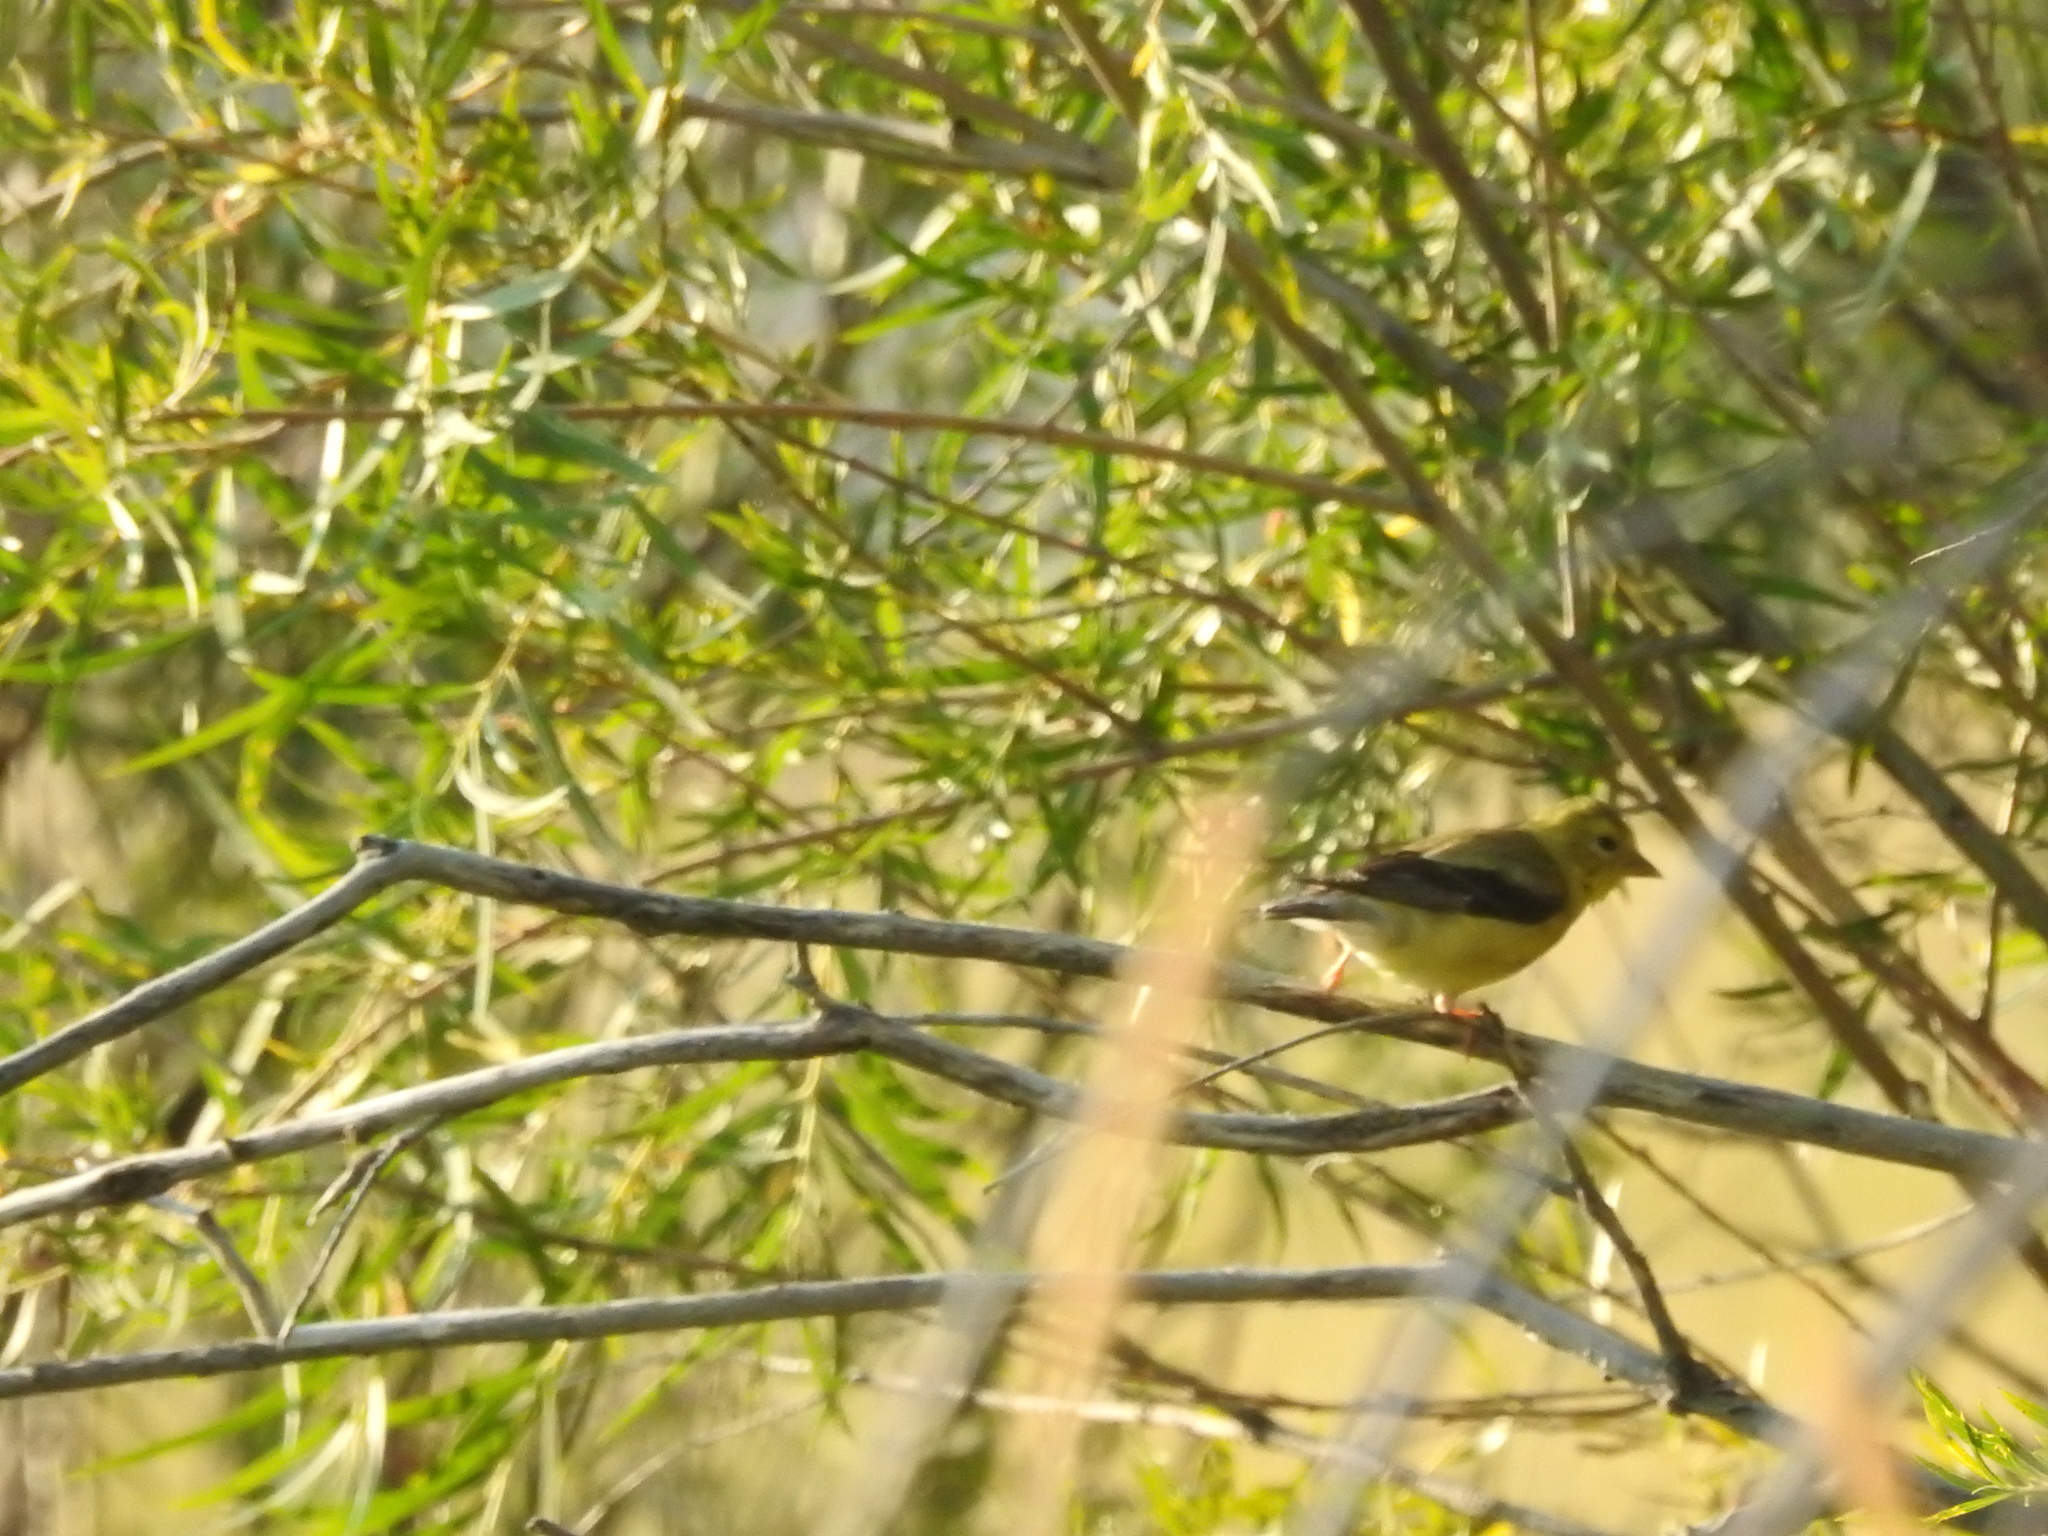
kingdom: Animalia
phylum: Chordata
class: Aves
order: Passeriformes
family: Fringillidae
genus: Spinus
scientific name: Spinus tristis
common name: American goldfinch
